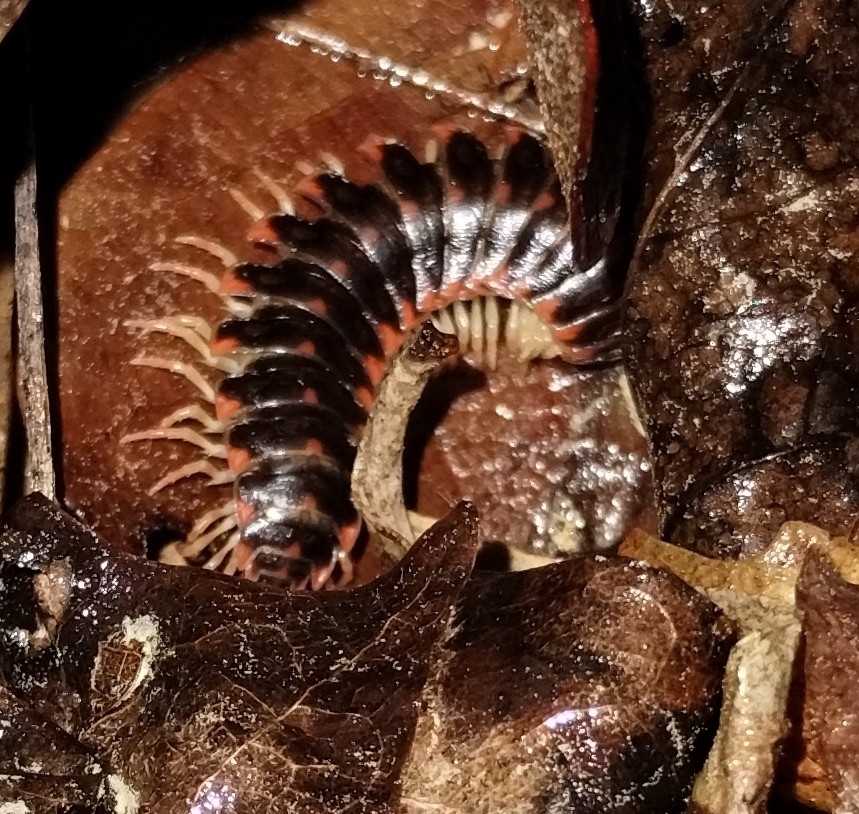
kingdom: Animalia
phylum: Arthropoda
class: Diplopoda
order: Polydesmida
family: Xystodesmidae
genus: Cherokia
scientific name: Cherokia georgiana
